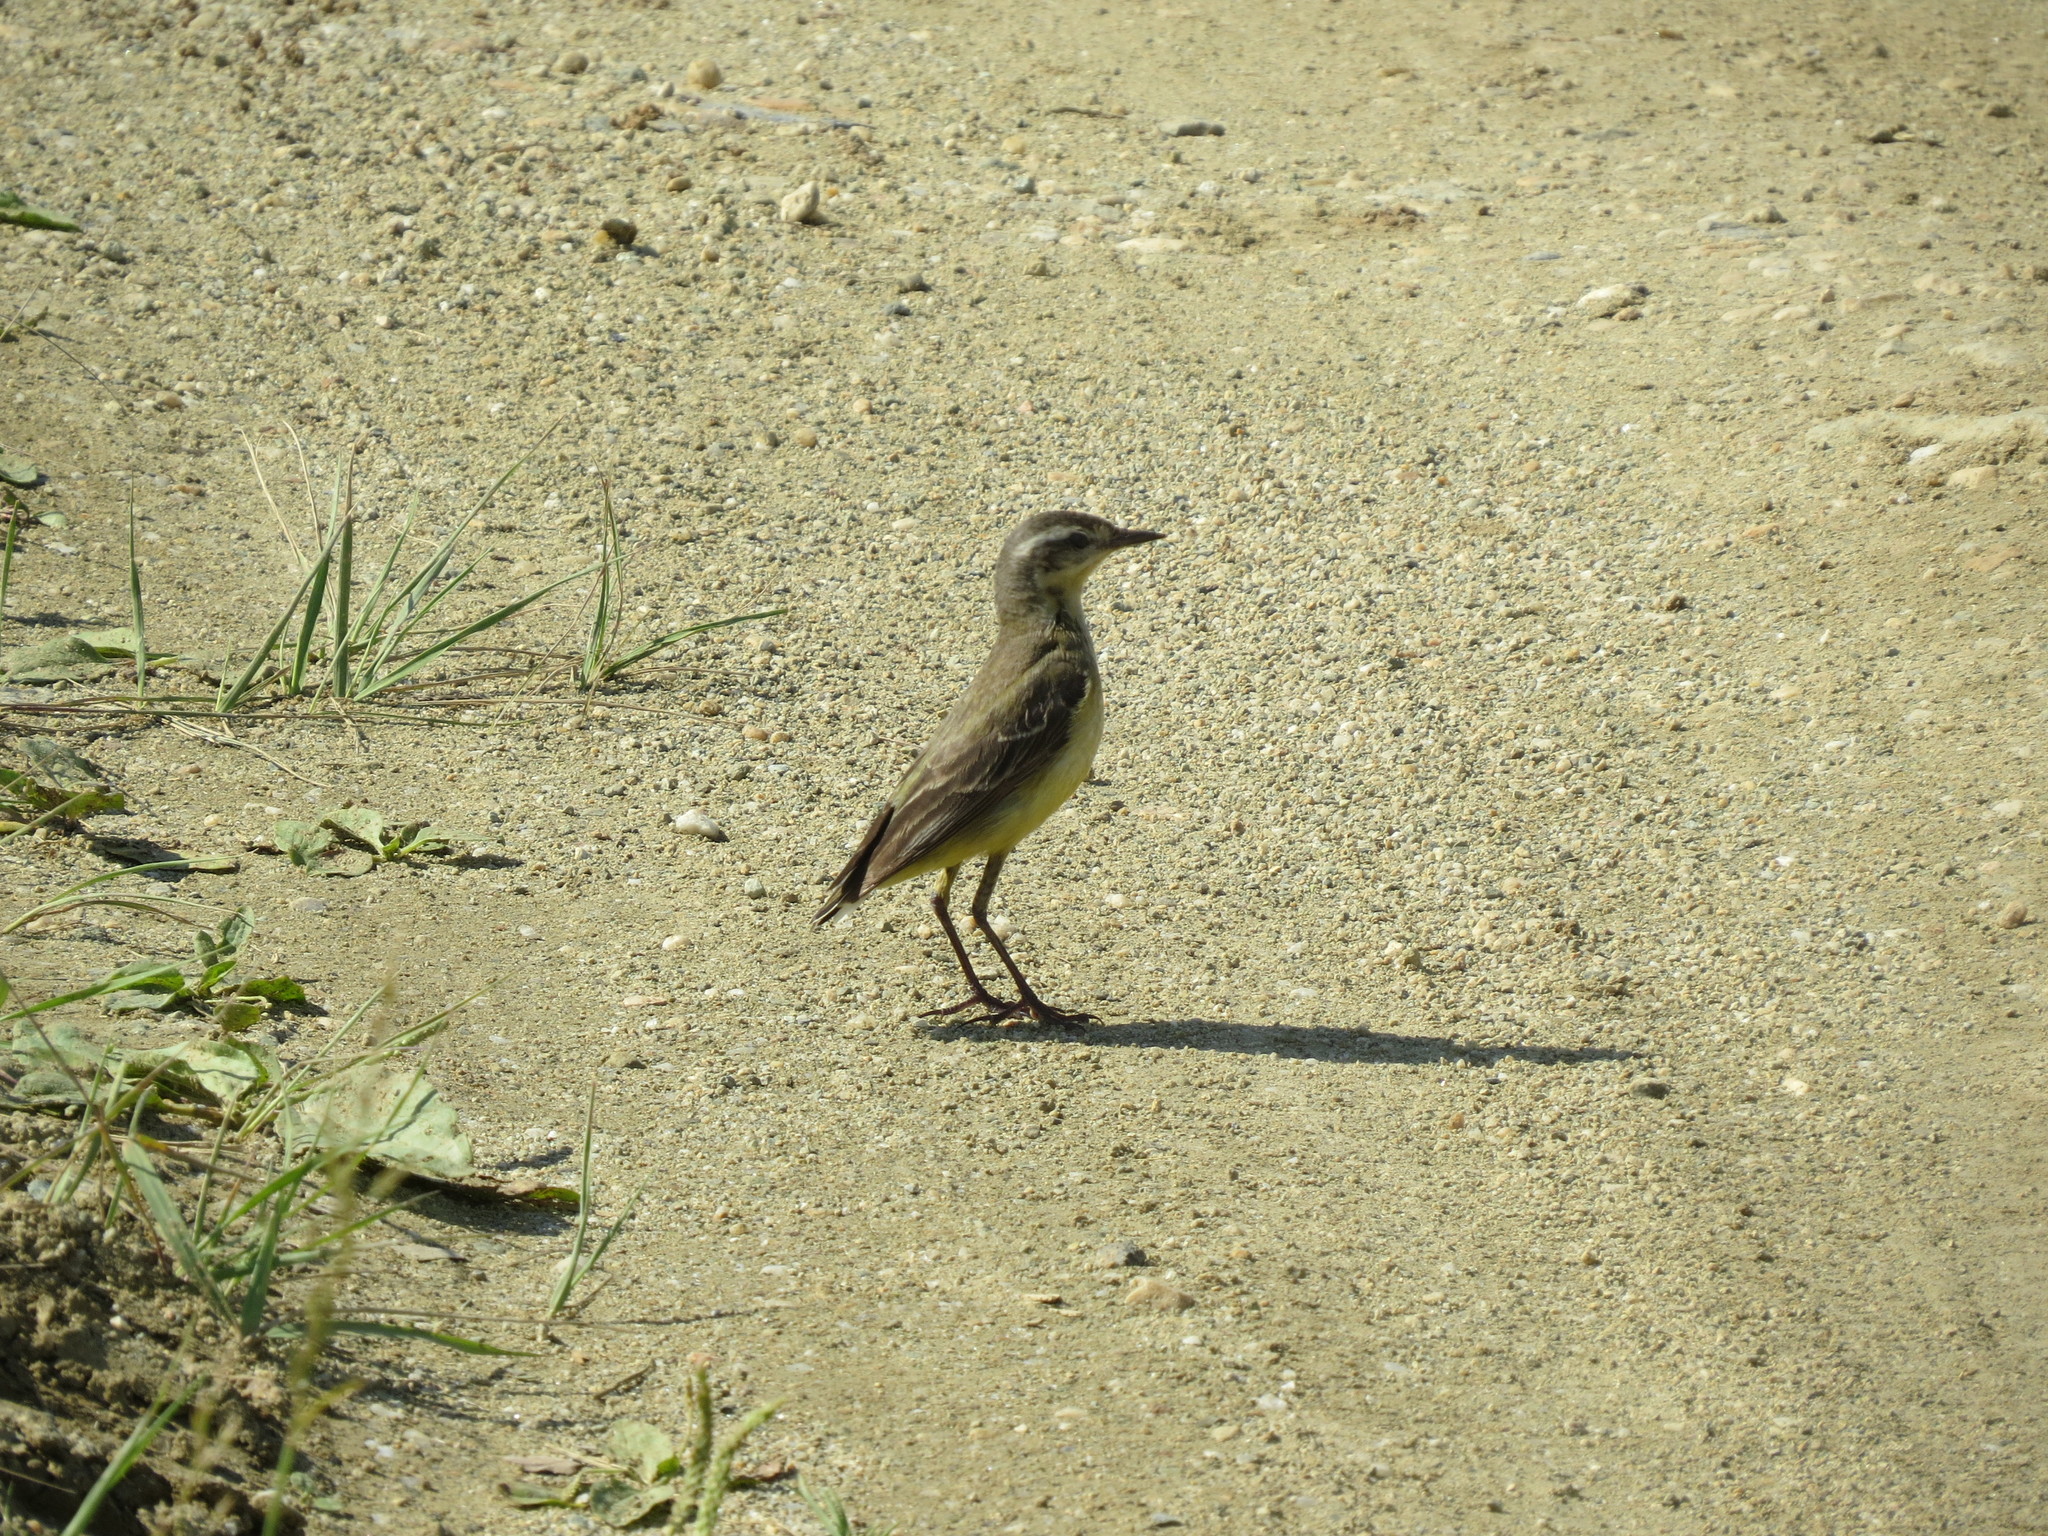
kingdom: Animalia
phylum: Chordata
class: Aves
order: Passeriformes
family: Motacillidae
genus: Motacilla
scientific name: Motacilla flava
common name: Western yellow wagtail
